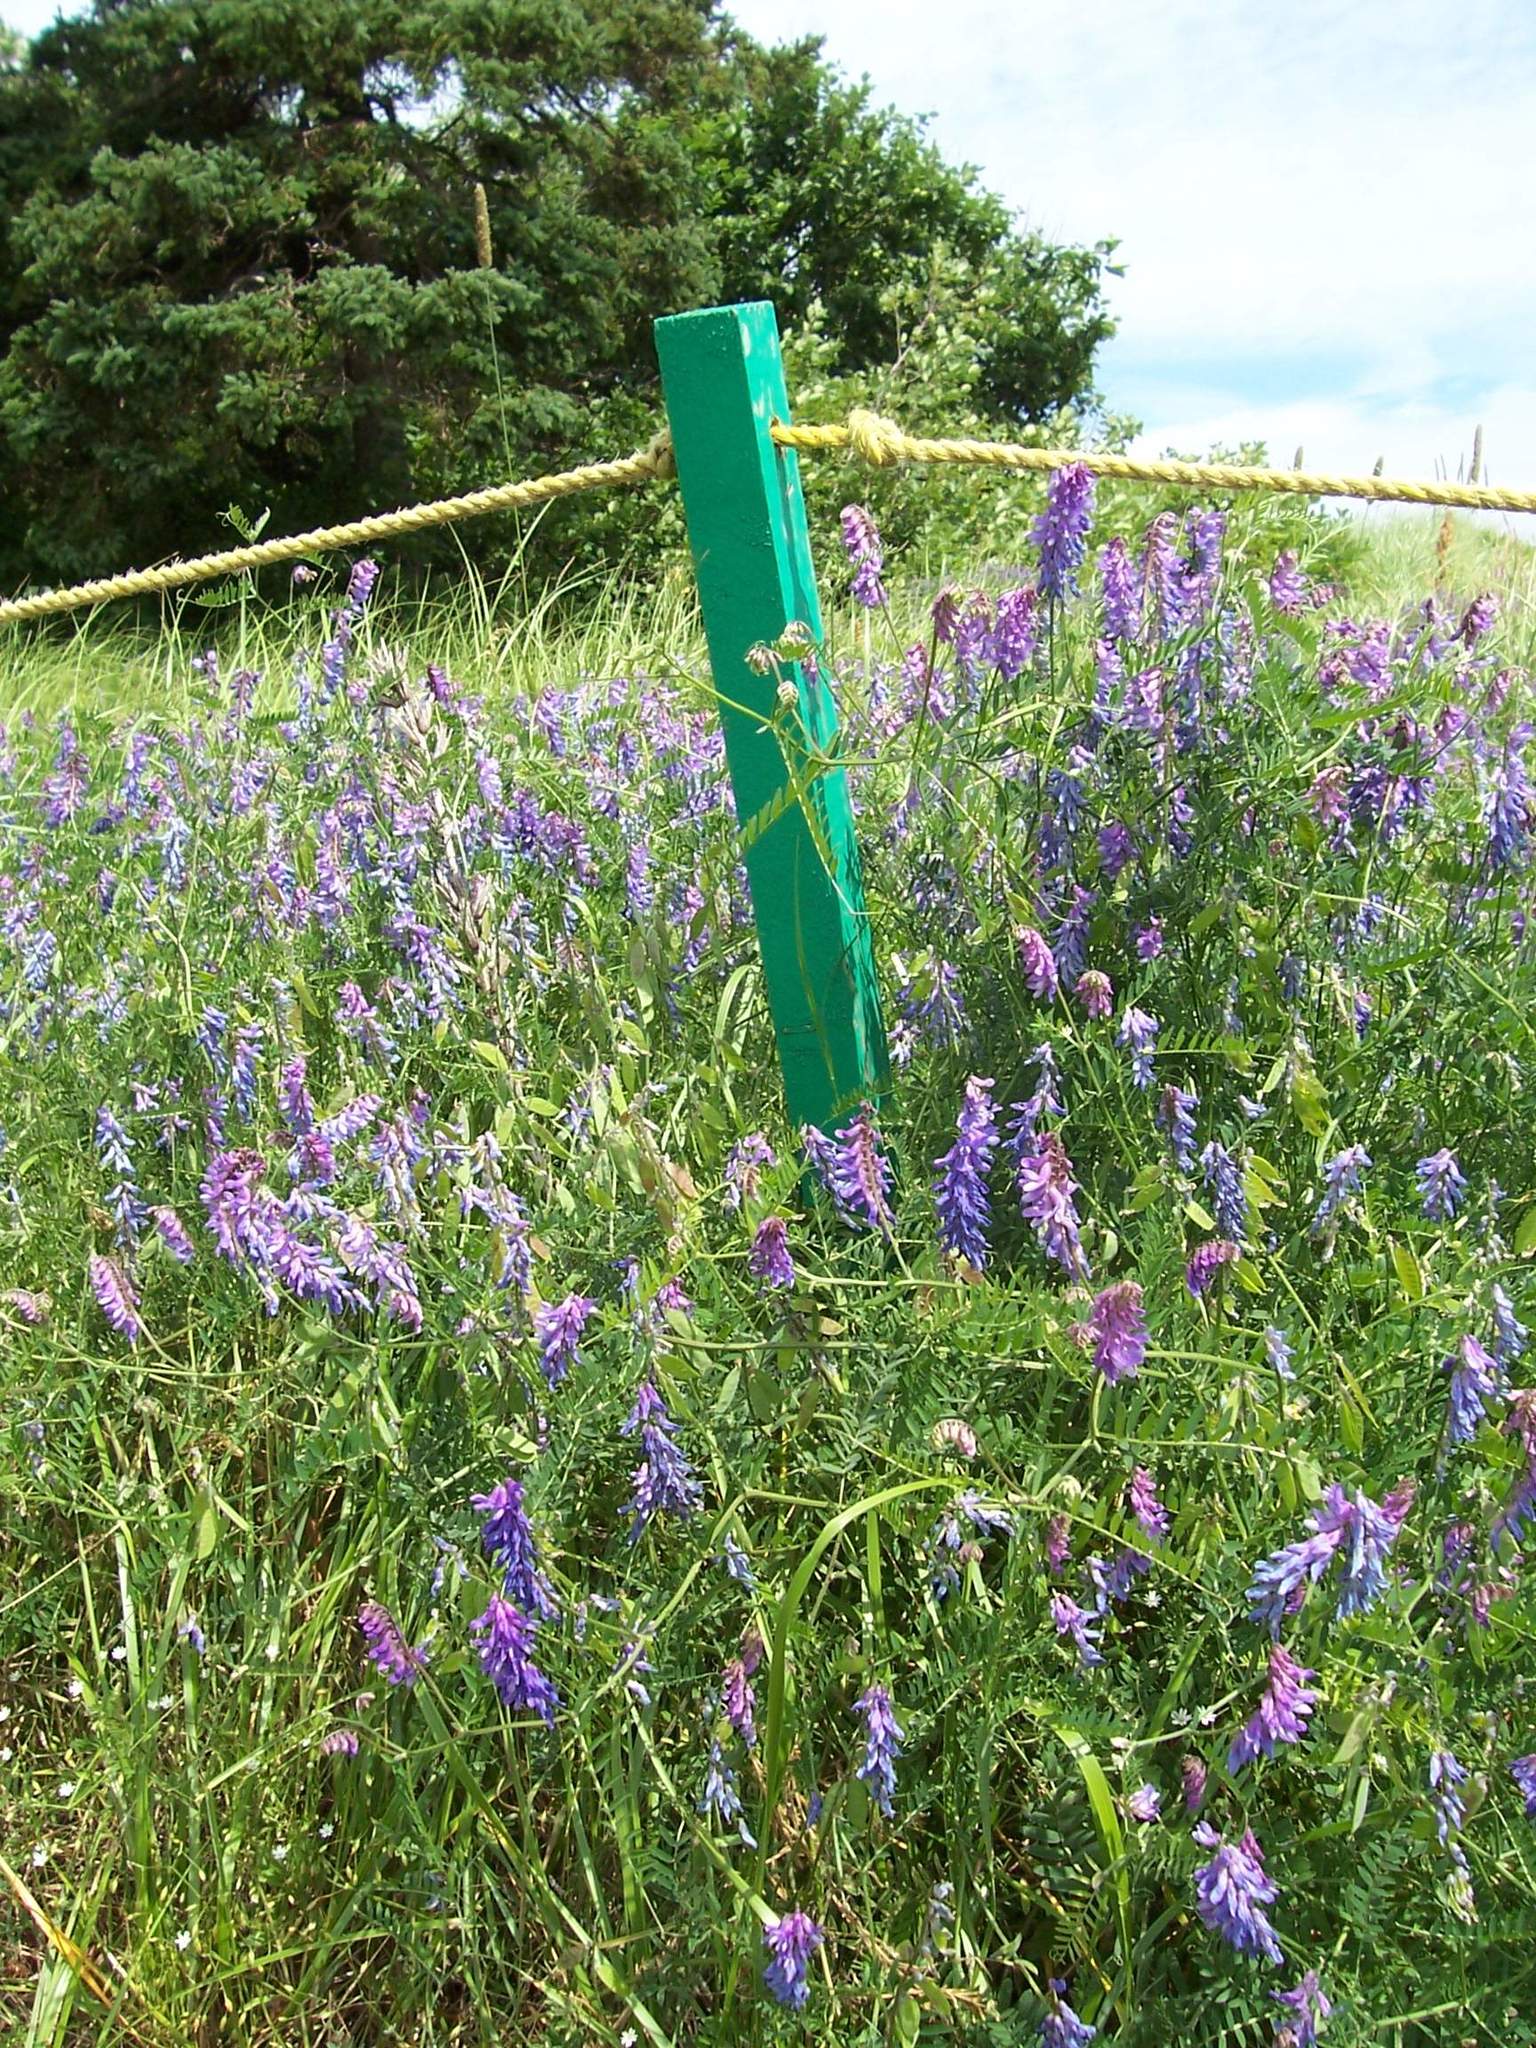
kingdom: Plantae
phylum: Tracheophyta
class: Magnoliopsida
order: Fabales
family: Fabaceae
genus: Vicia
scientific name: Vicia cracca
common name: Bird vetch
